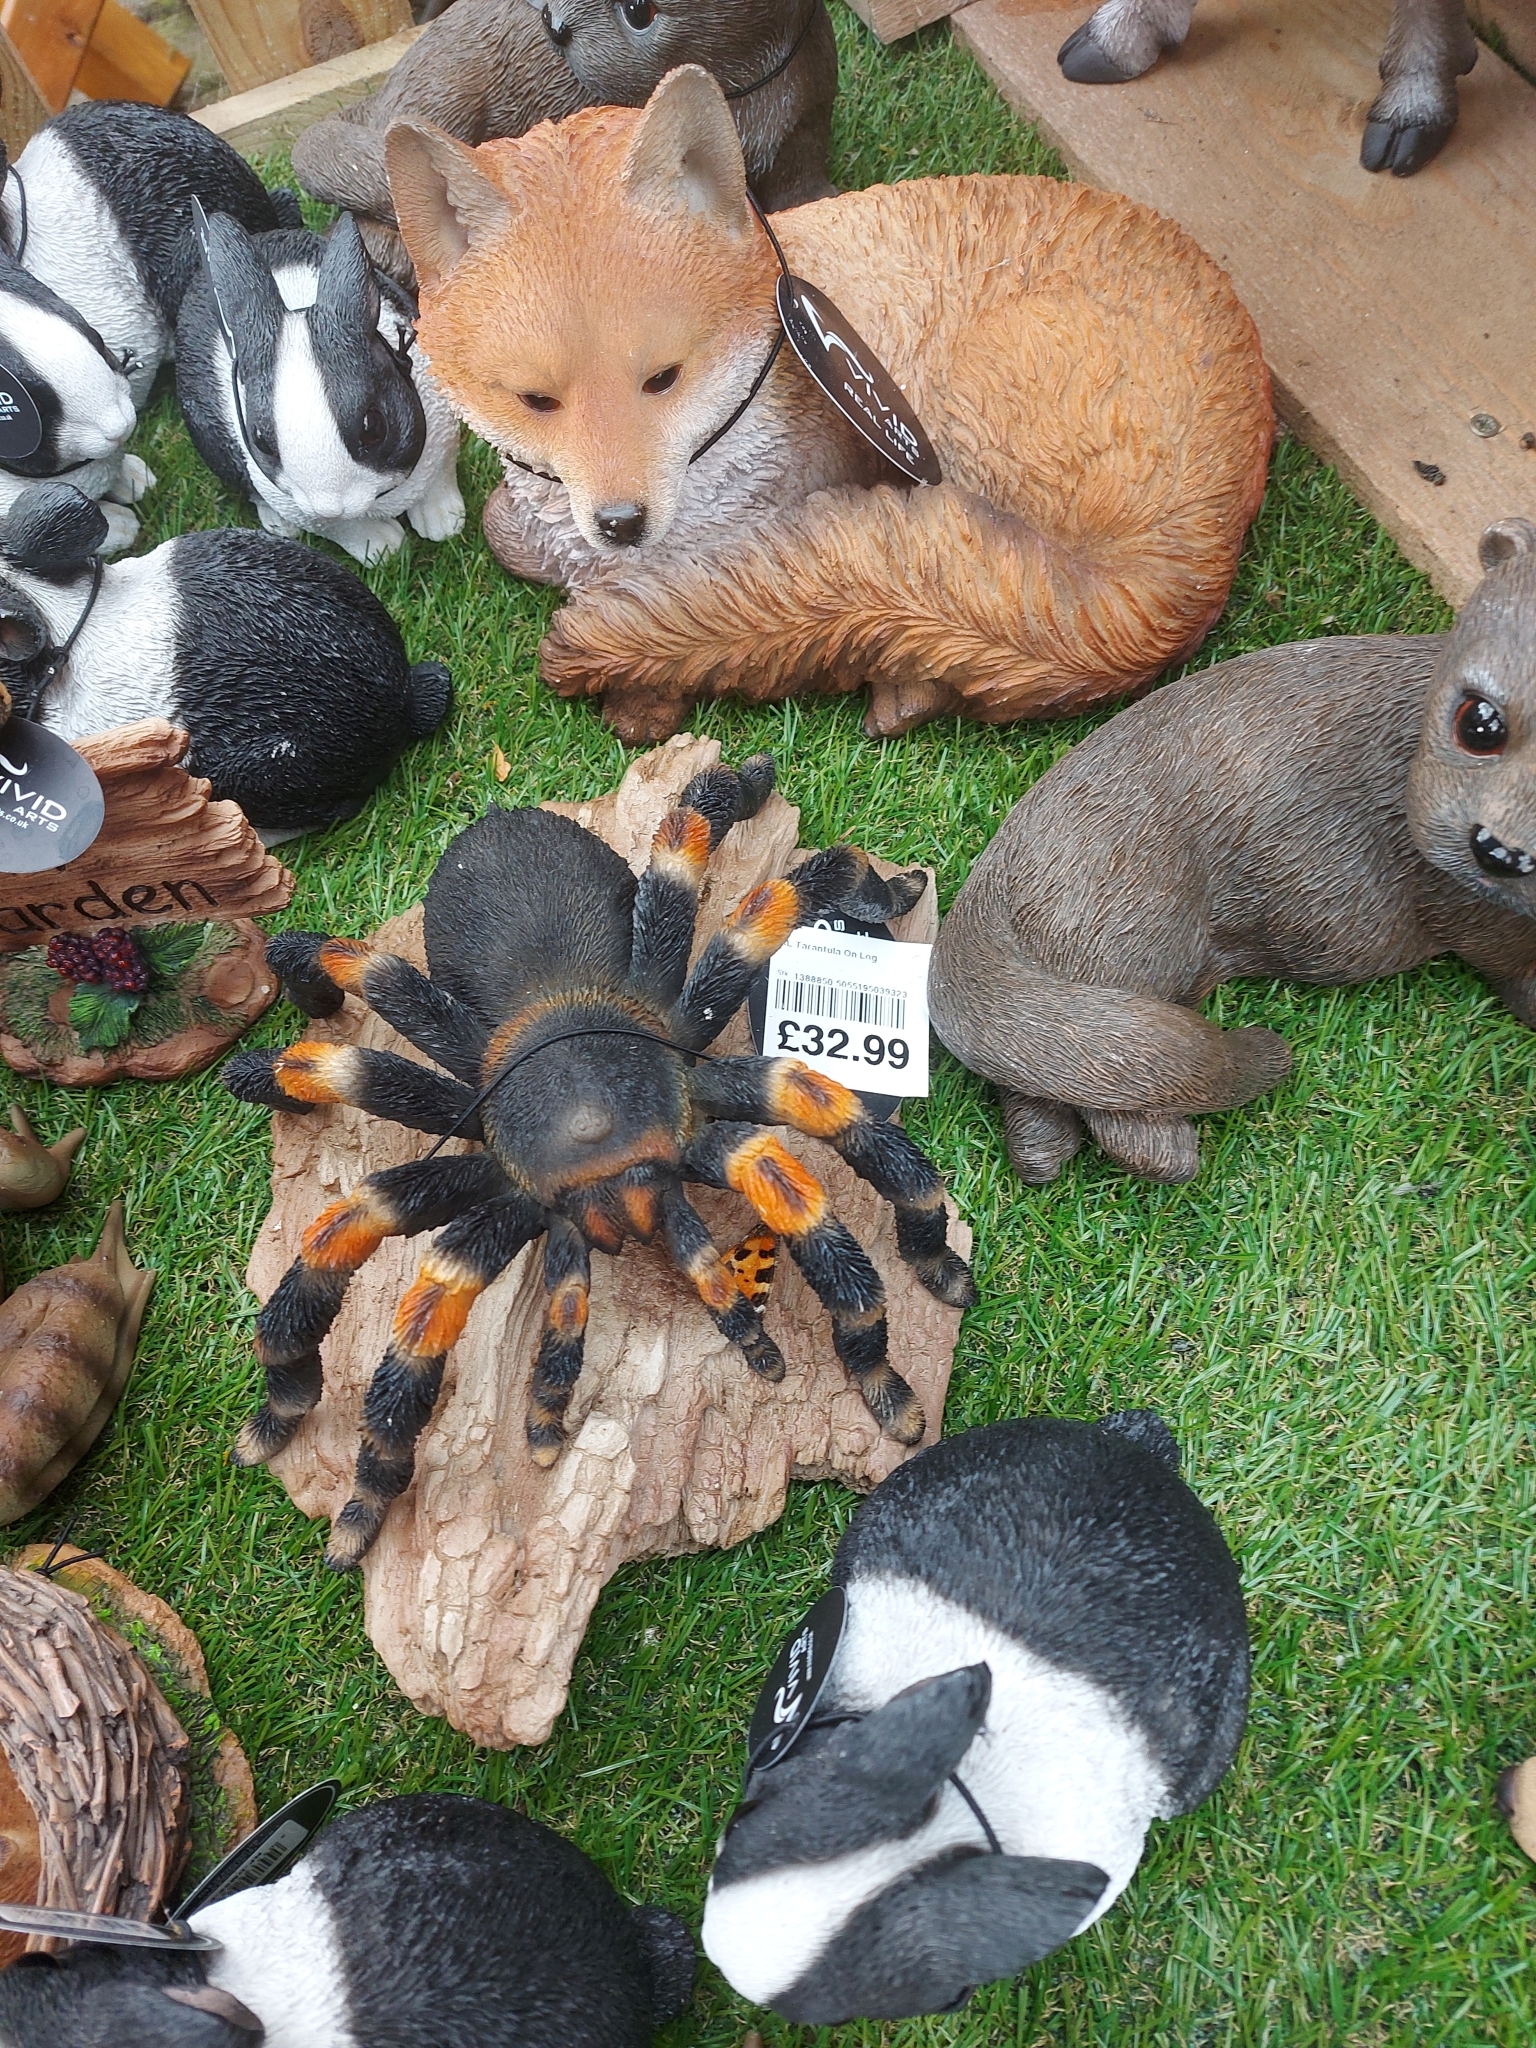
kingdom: Animalia
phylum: Arthropoda
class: Insecta
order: Lepidoptera
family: Nymphalidae
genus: Aglais
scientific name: Aglais urticae
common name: Small tortoiseshell
